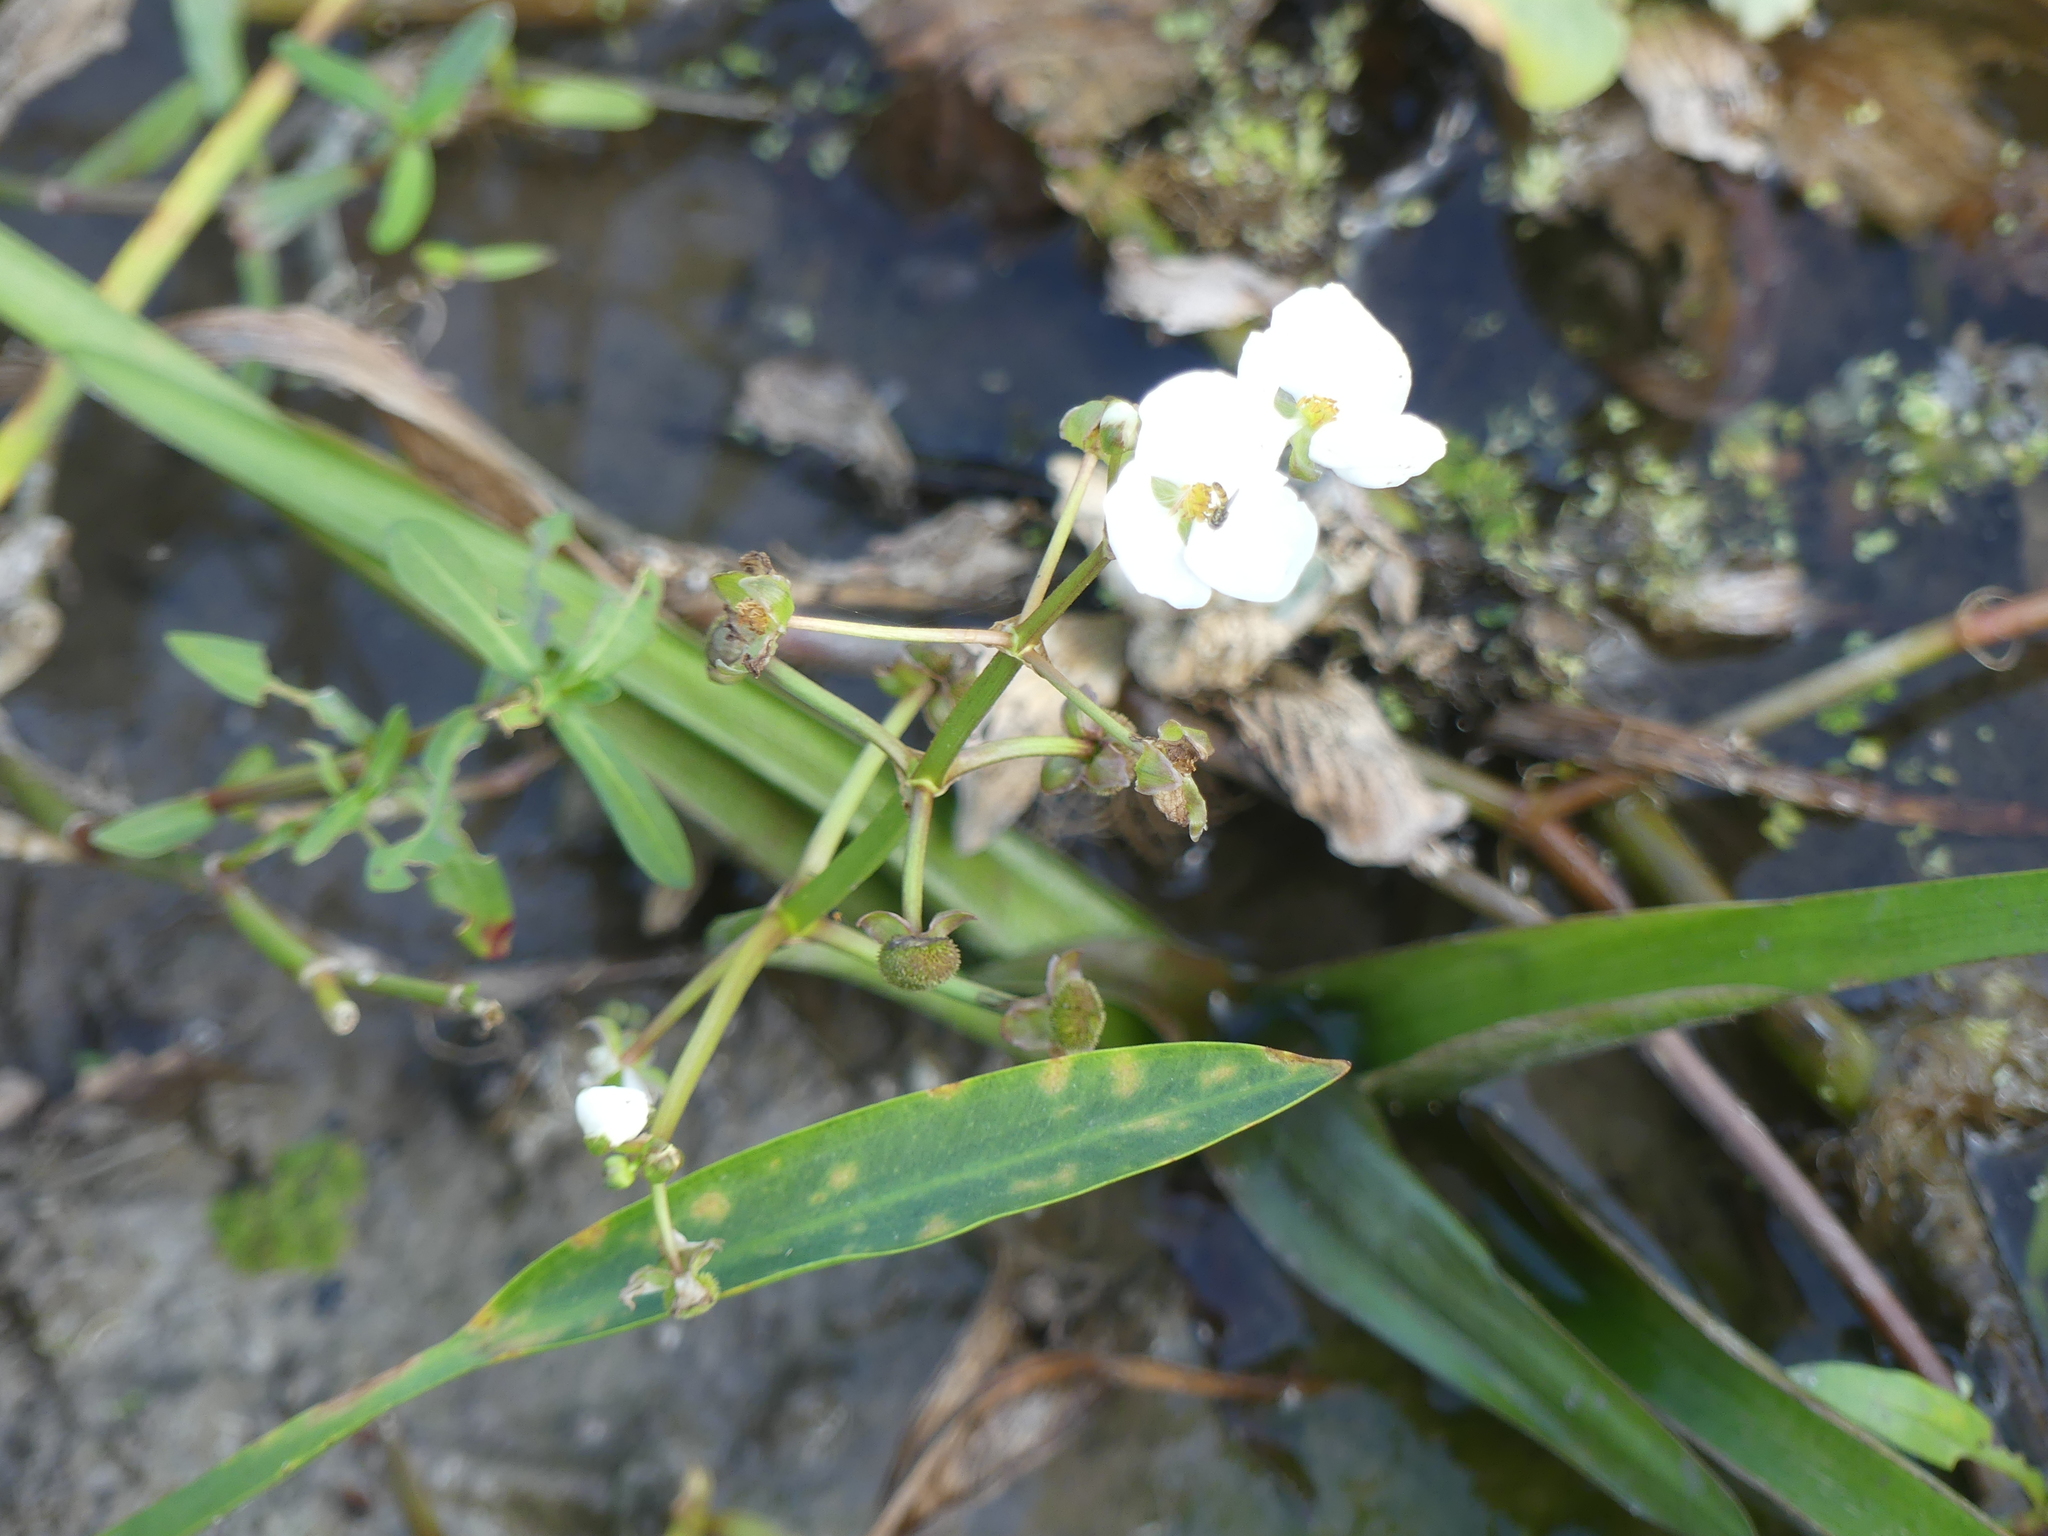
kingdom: Plantae
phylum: Tracheophyta
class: Liliopsida
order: Alismatales
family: Alismataceae
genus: Sagittaria
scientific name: Sagittaria platyphylla
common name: Broad-leaf arrowhead
